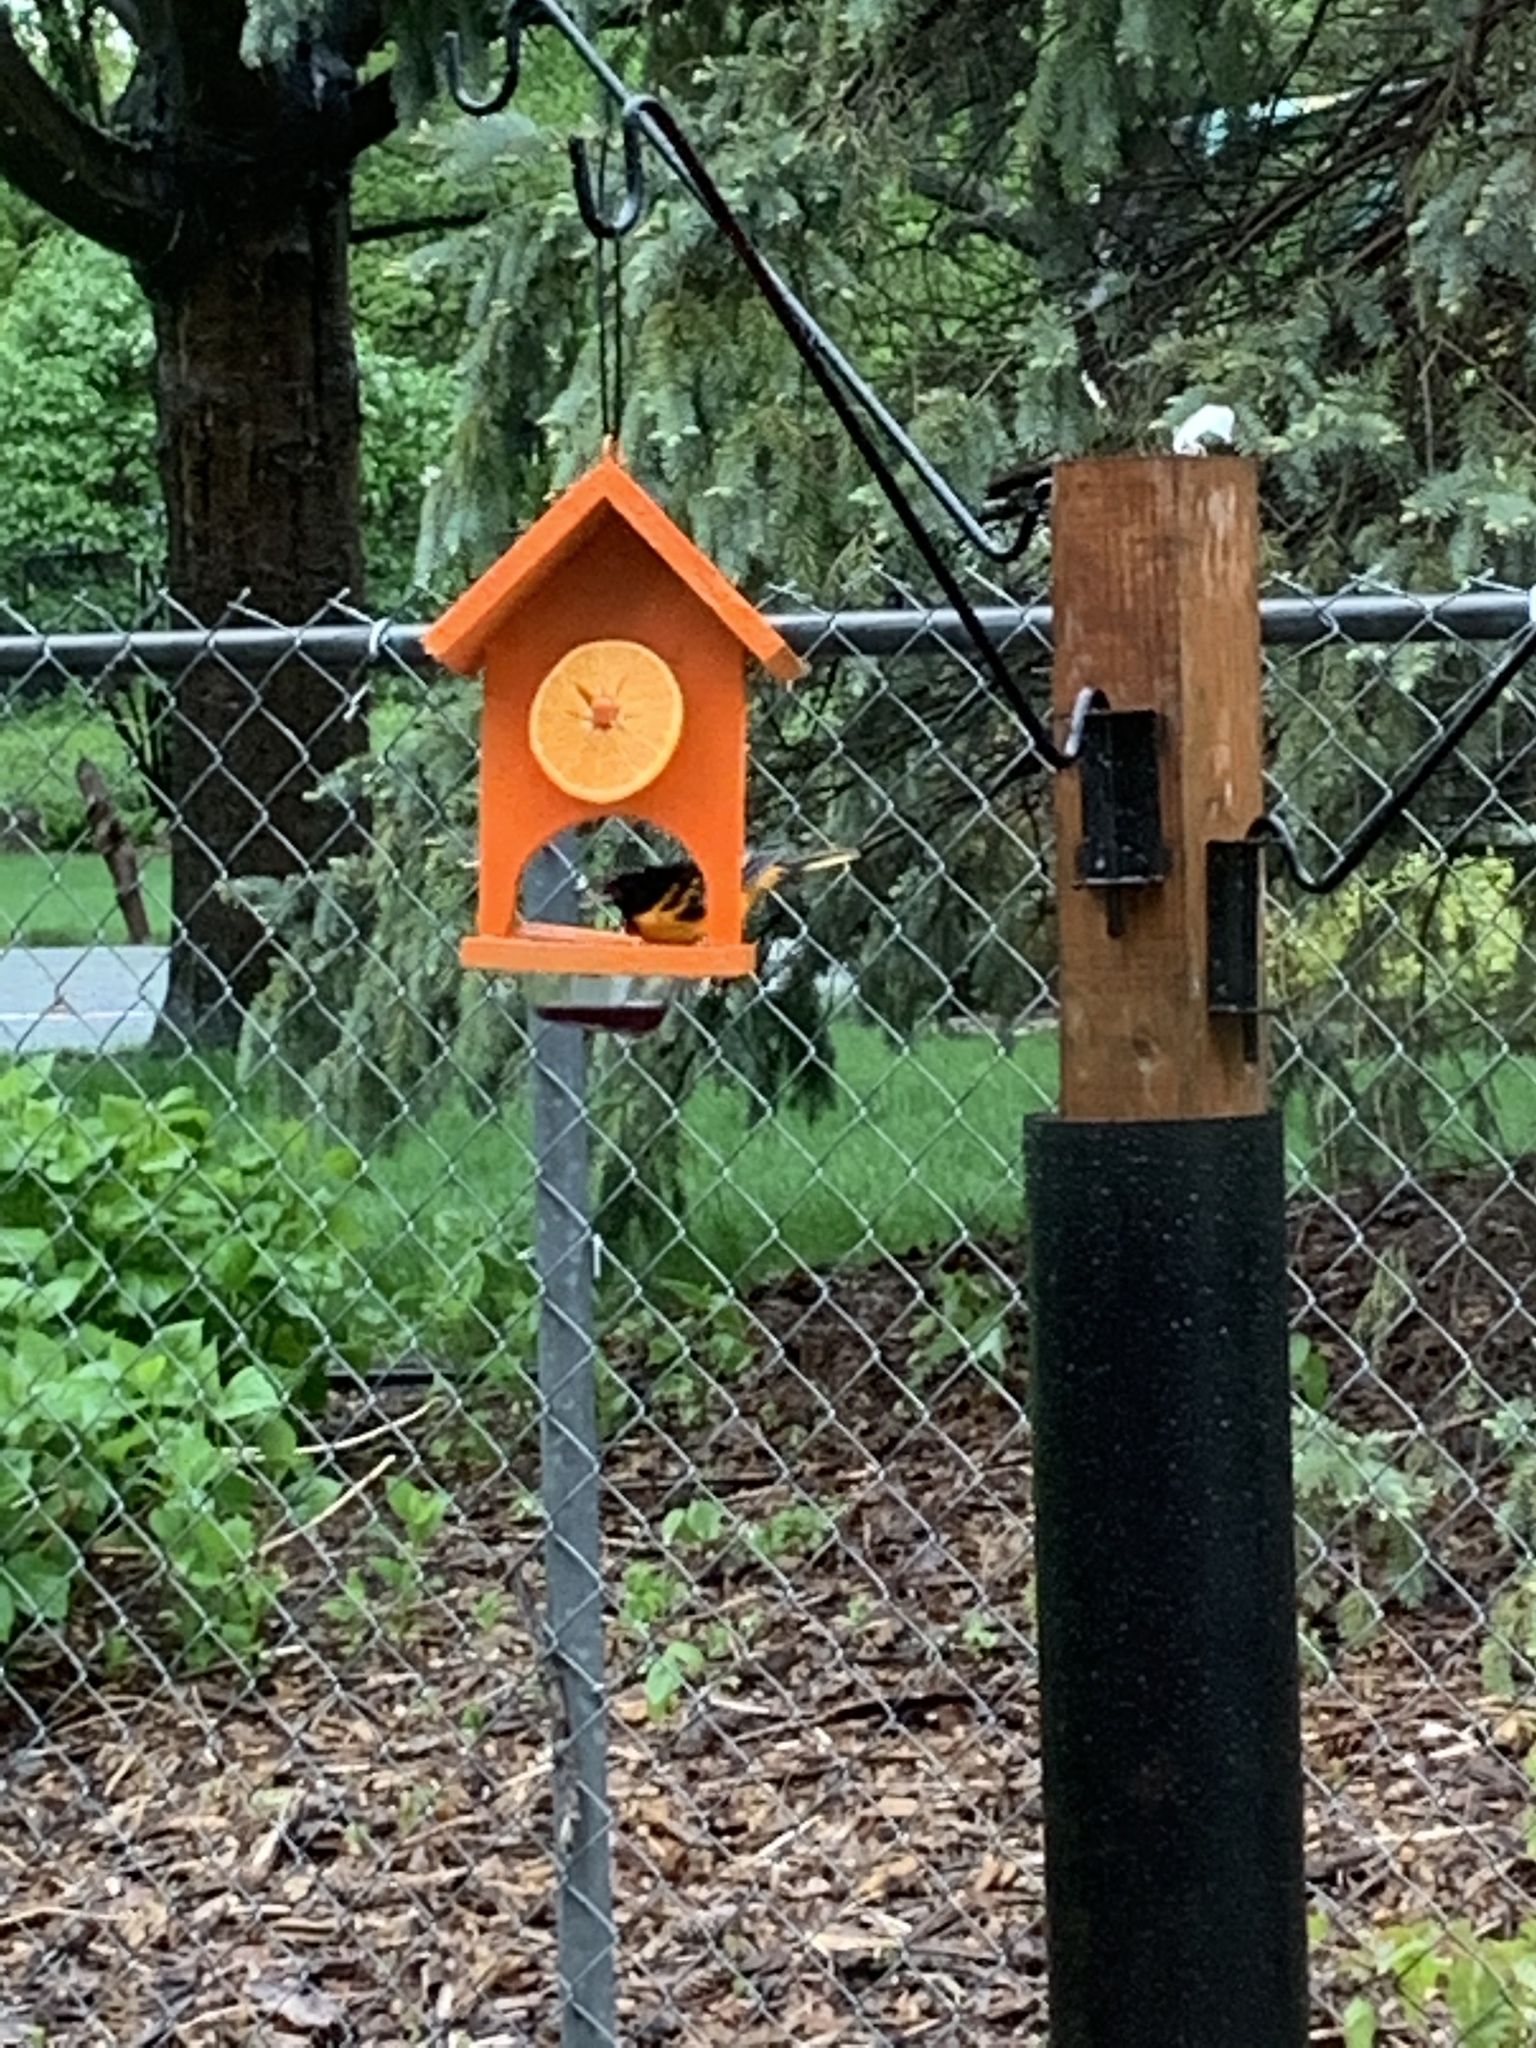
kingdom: Animalia
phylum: Chordata
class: Aves
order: Passeriformes
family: Icteridae
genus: Icterus
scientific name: Icterus galbula
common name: Baltimore oriole
